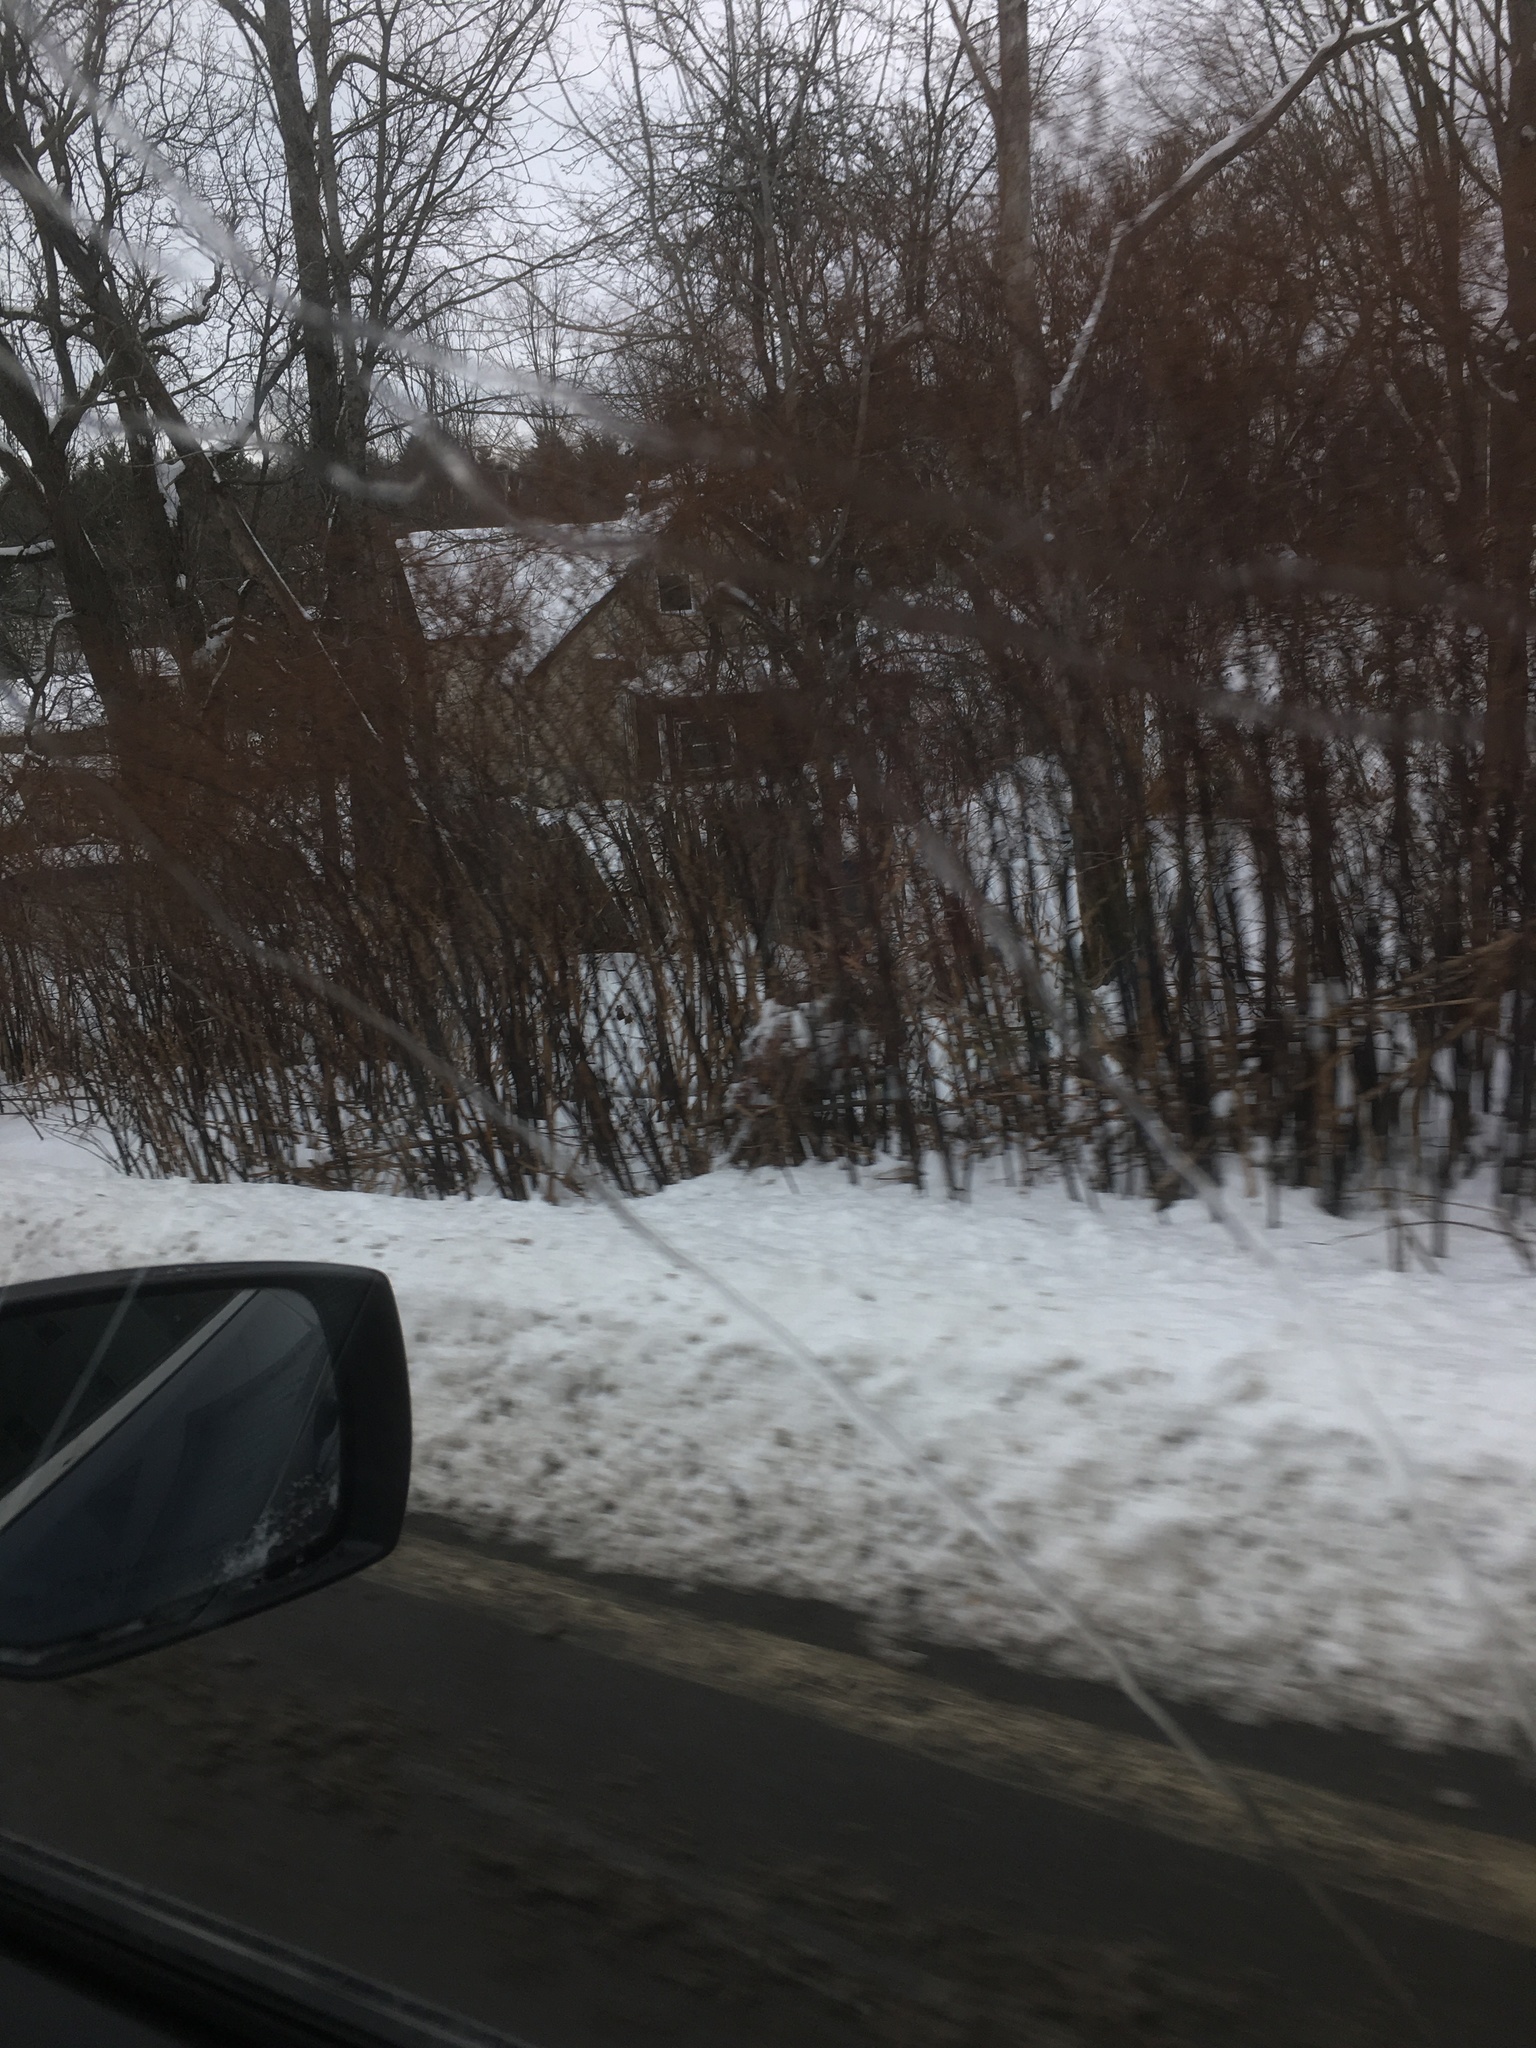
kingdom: Plantae
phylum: Tracheophyta
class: Magnoliopsida
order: Caryophyllales
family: Polygonaceae
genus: Reynoutria
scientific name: Reynoutria japonica
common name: Japanese knotweed
